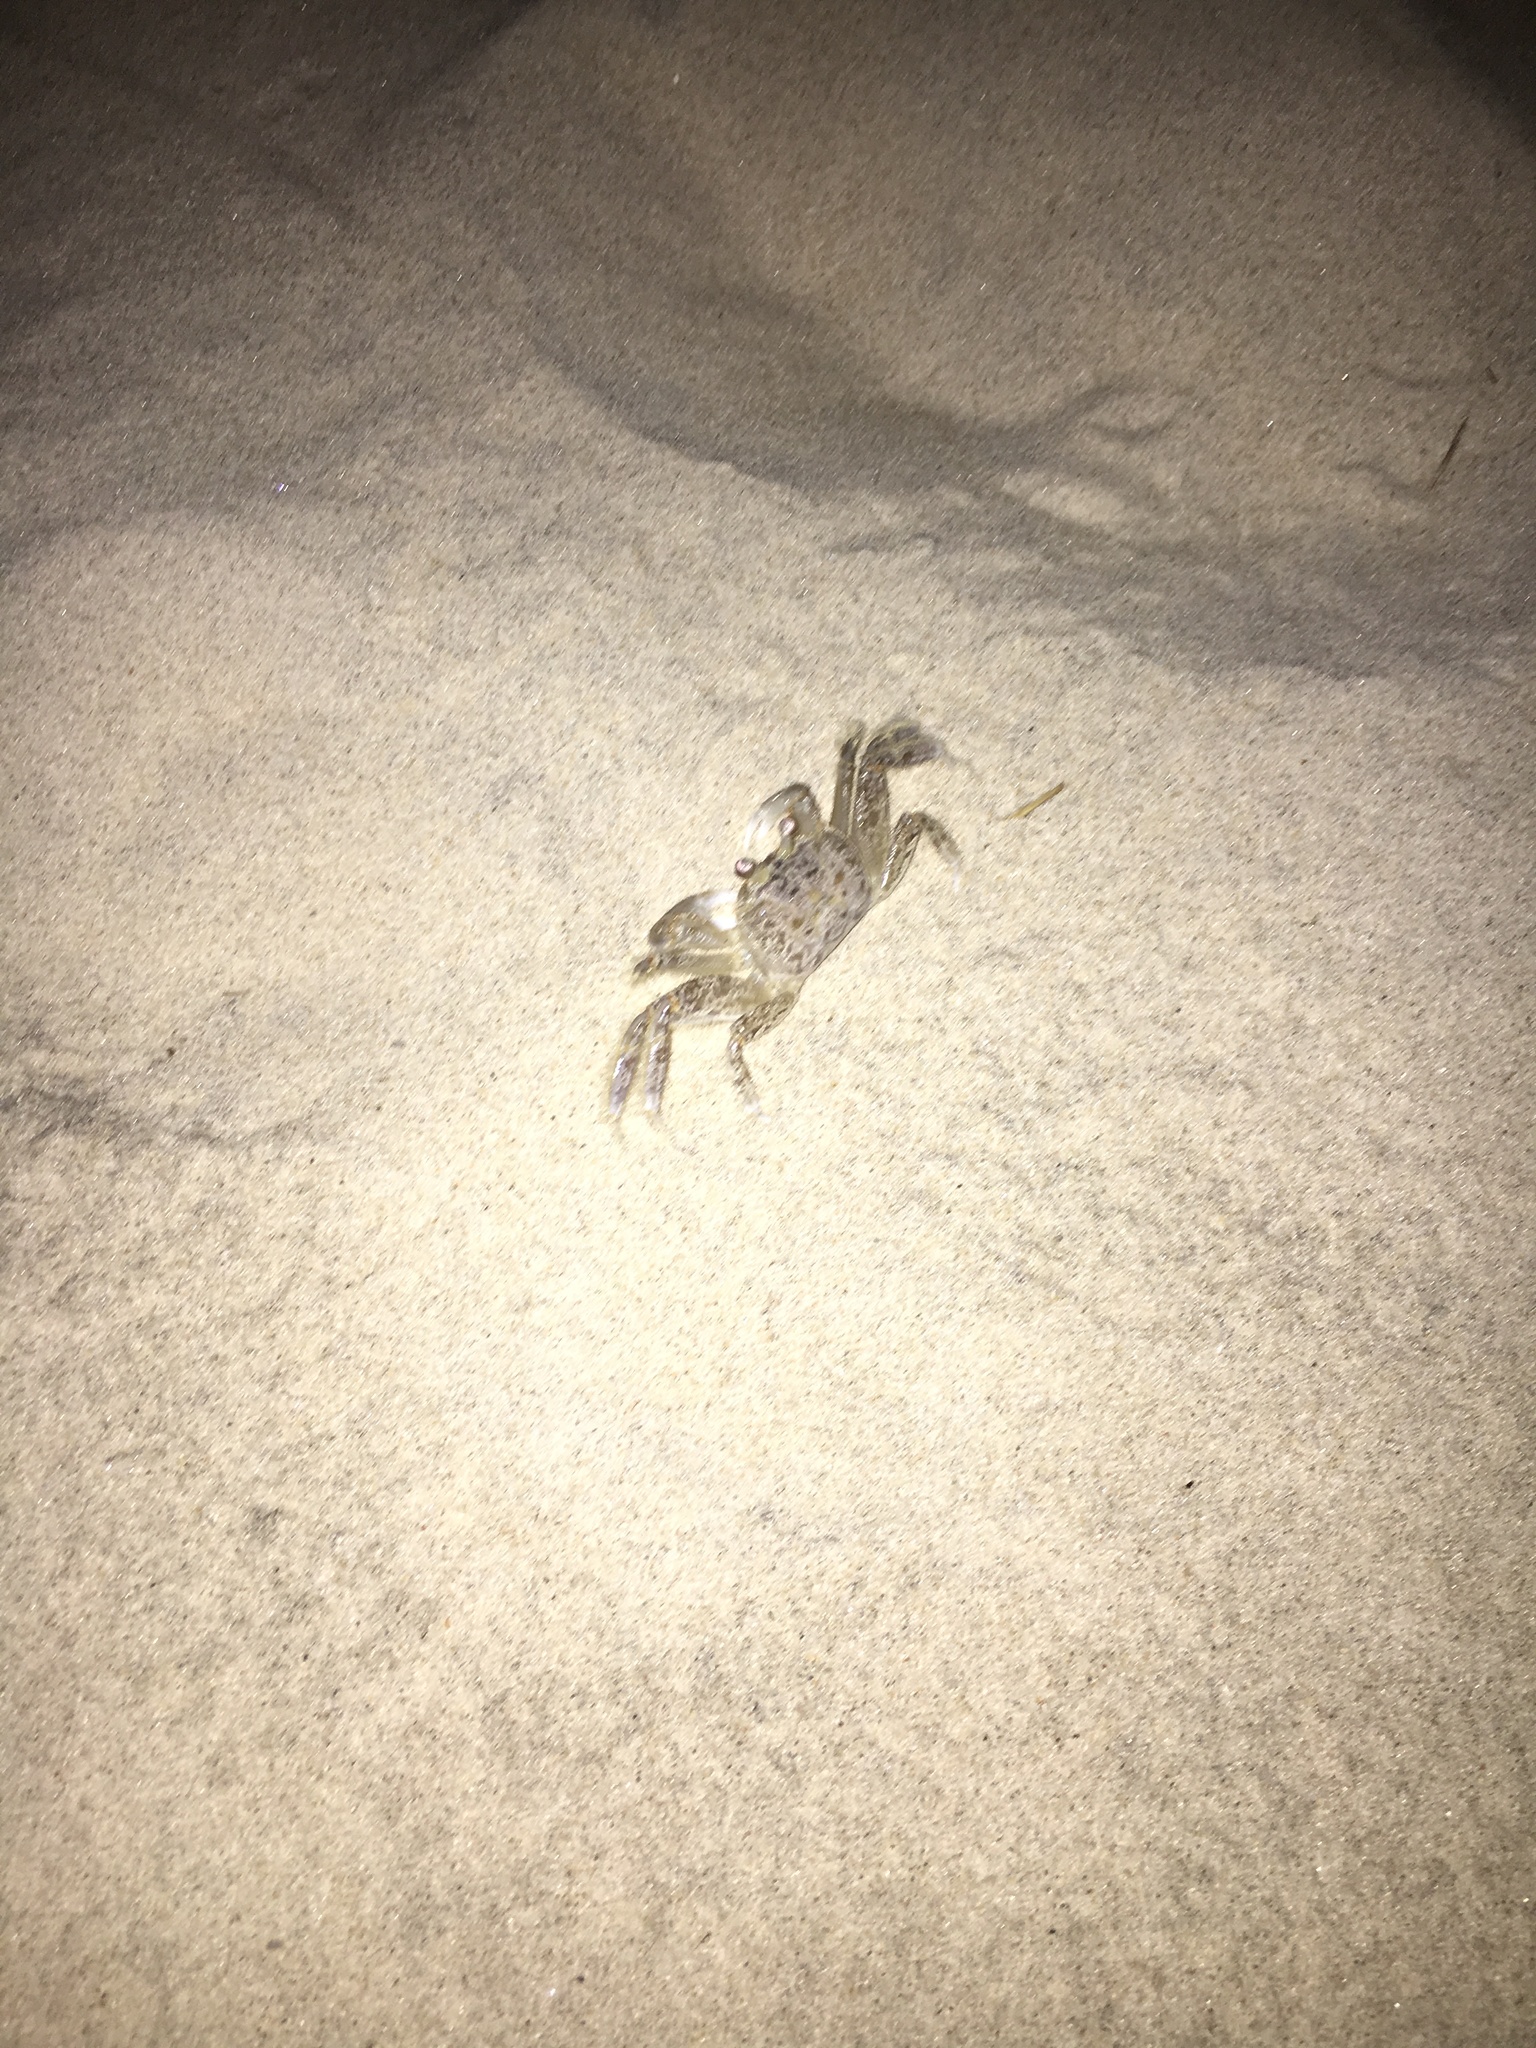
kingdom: Animalia
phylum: Arthropoda
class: Malacostraca
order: Decapoda
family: Ocypodidae
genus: Ocypode
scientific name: Ocypode quadrata
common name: Ghost crab
